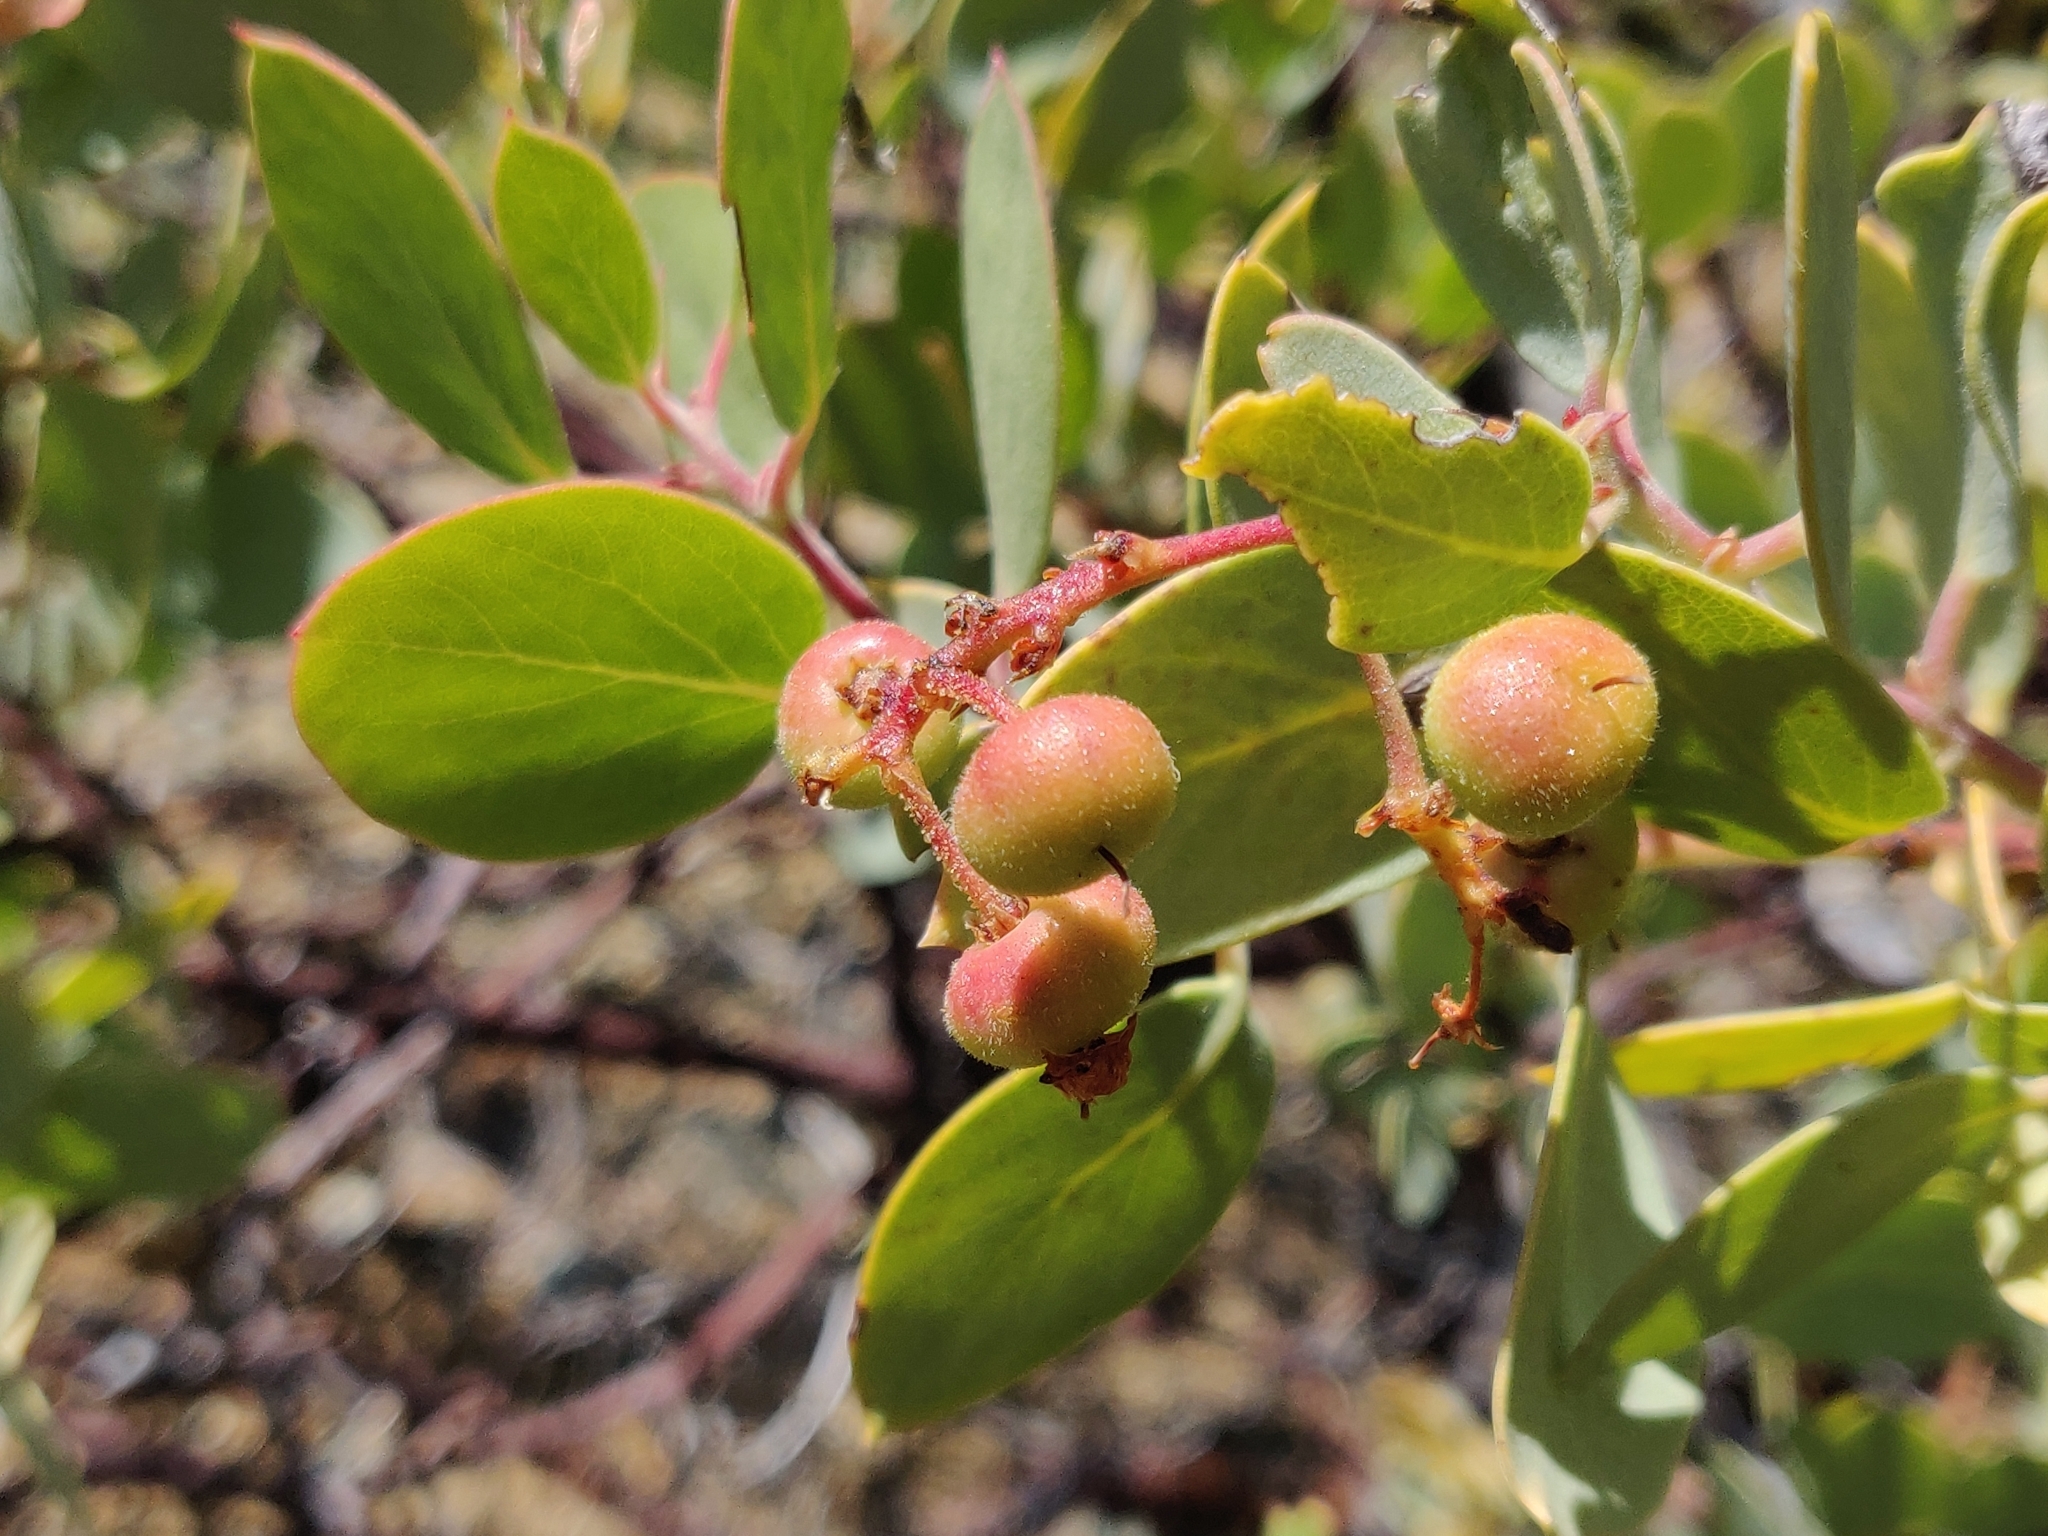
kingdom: Plantae
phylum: Tracheophyta
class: Magnoliopsida
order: Ericales
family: Ericaceae
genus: Arctostaphylos
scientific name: Arctostaphylos viscida
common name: White-leaf manzanita
